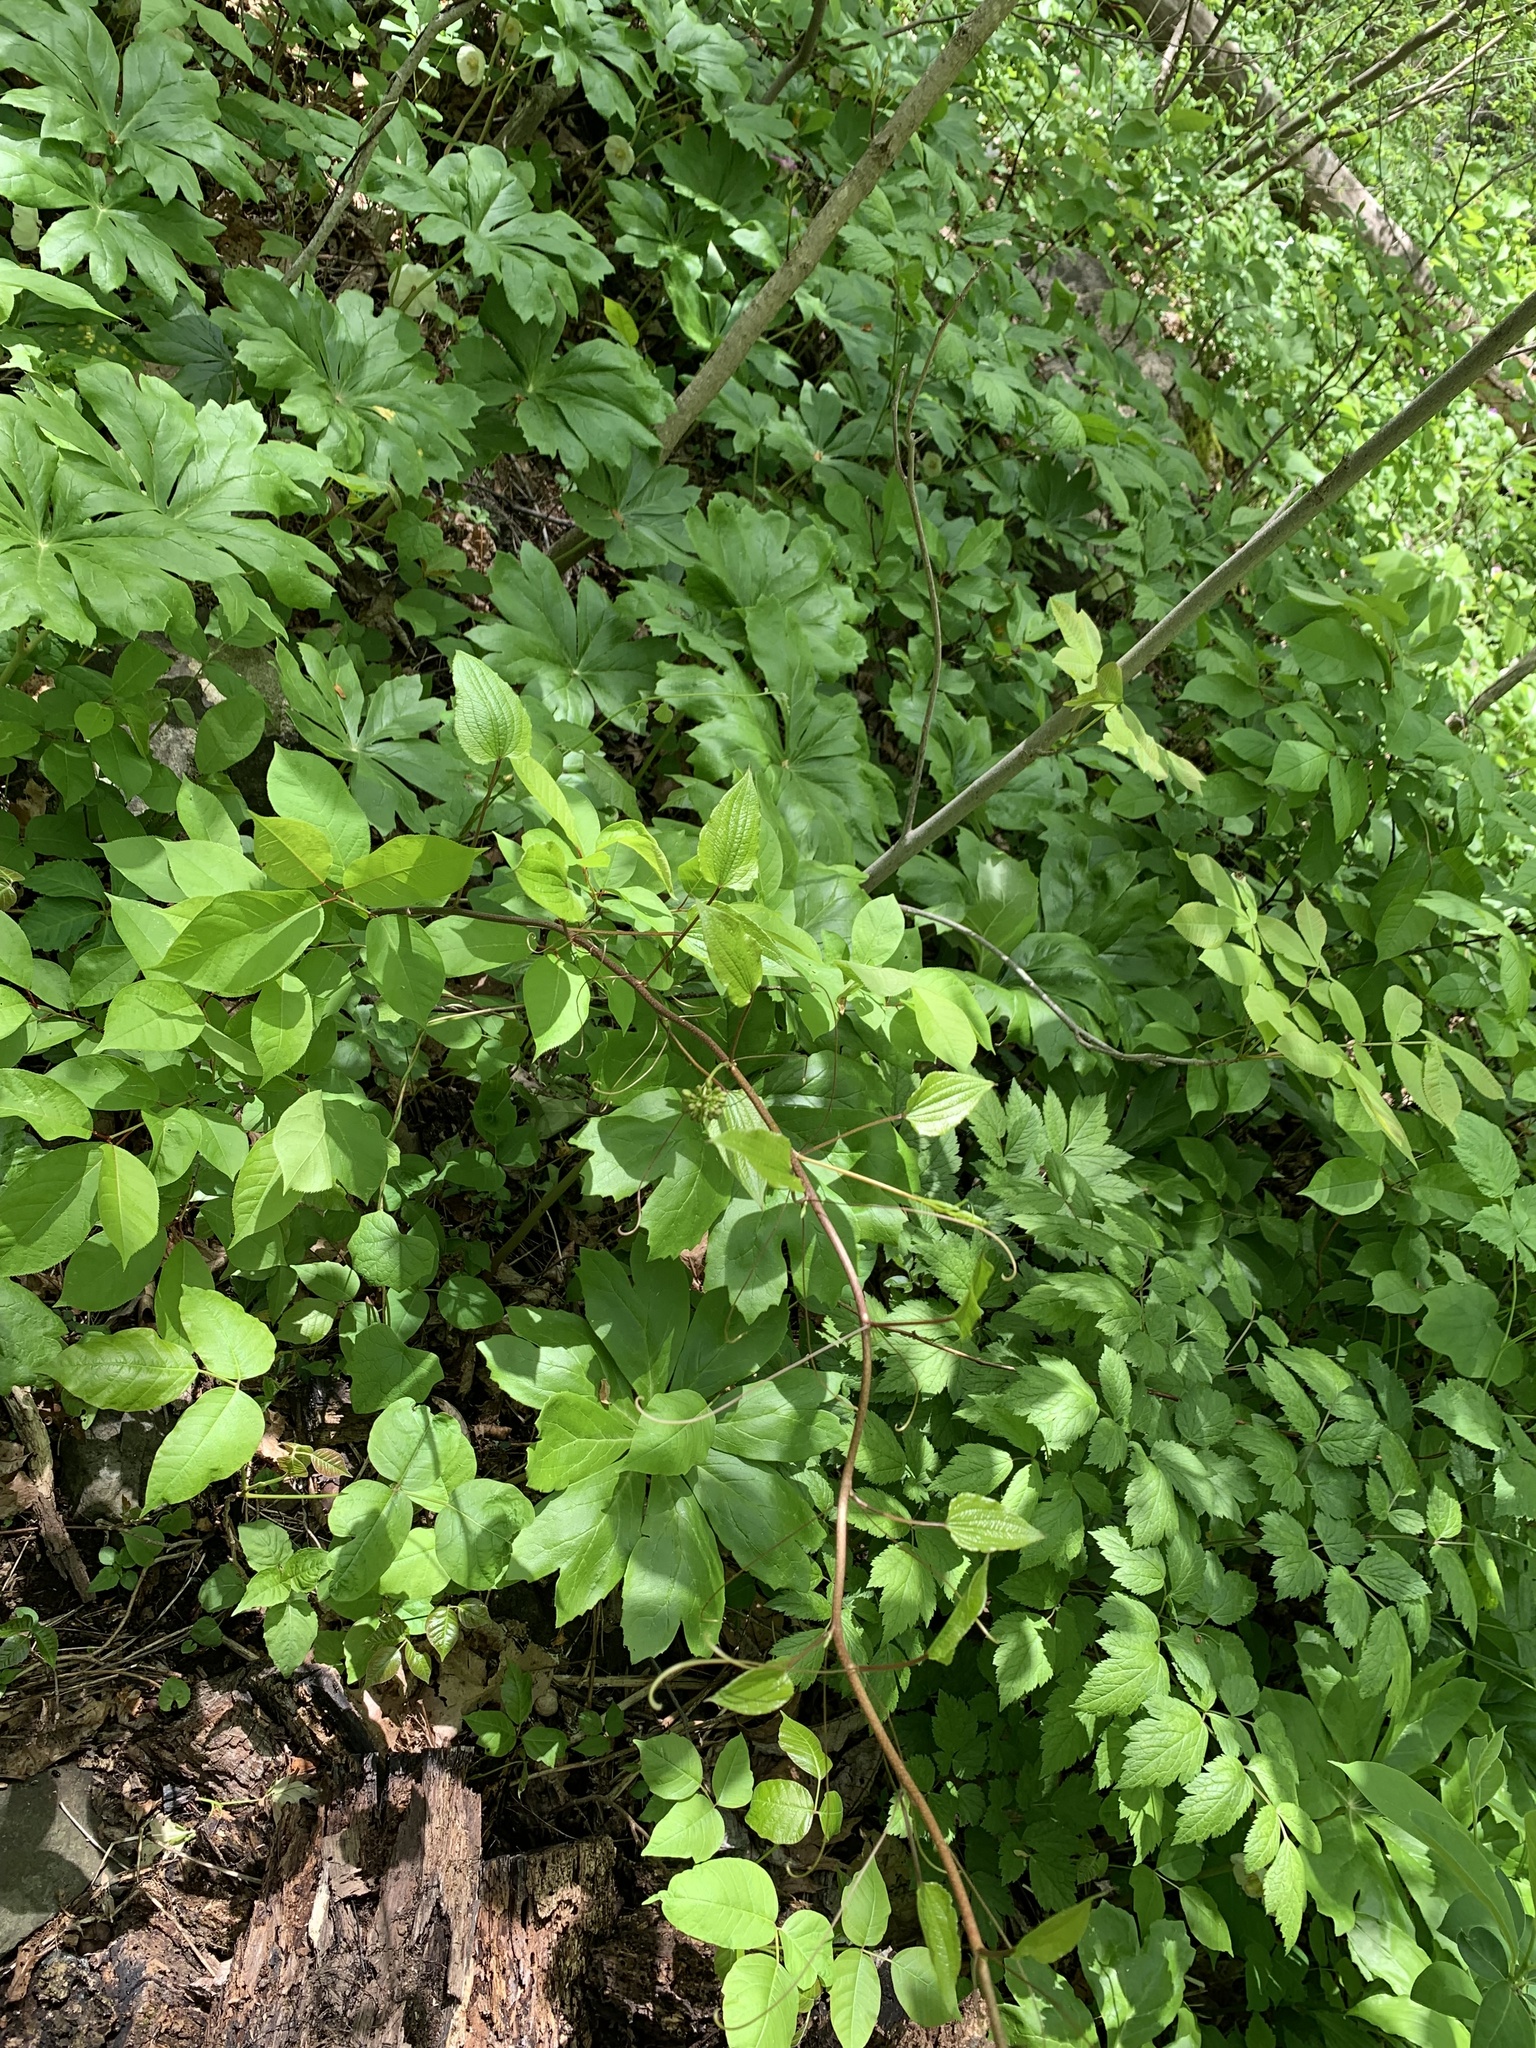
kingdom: Plantae
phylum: Tracheophyta
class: Liliopsida
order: Liliales
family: Smilacaceae
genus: Smilax
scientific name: Smilax pulverulenta
